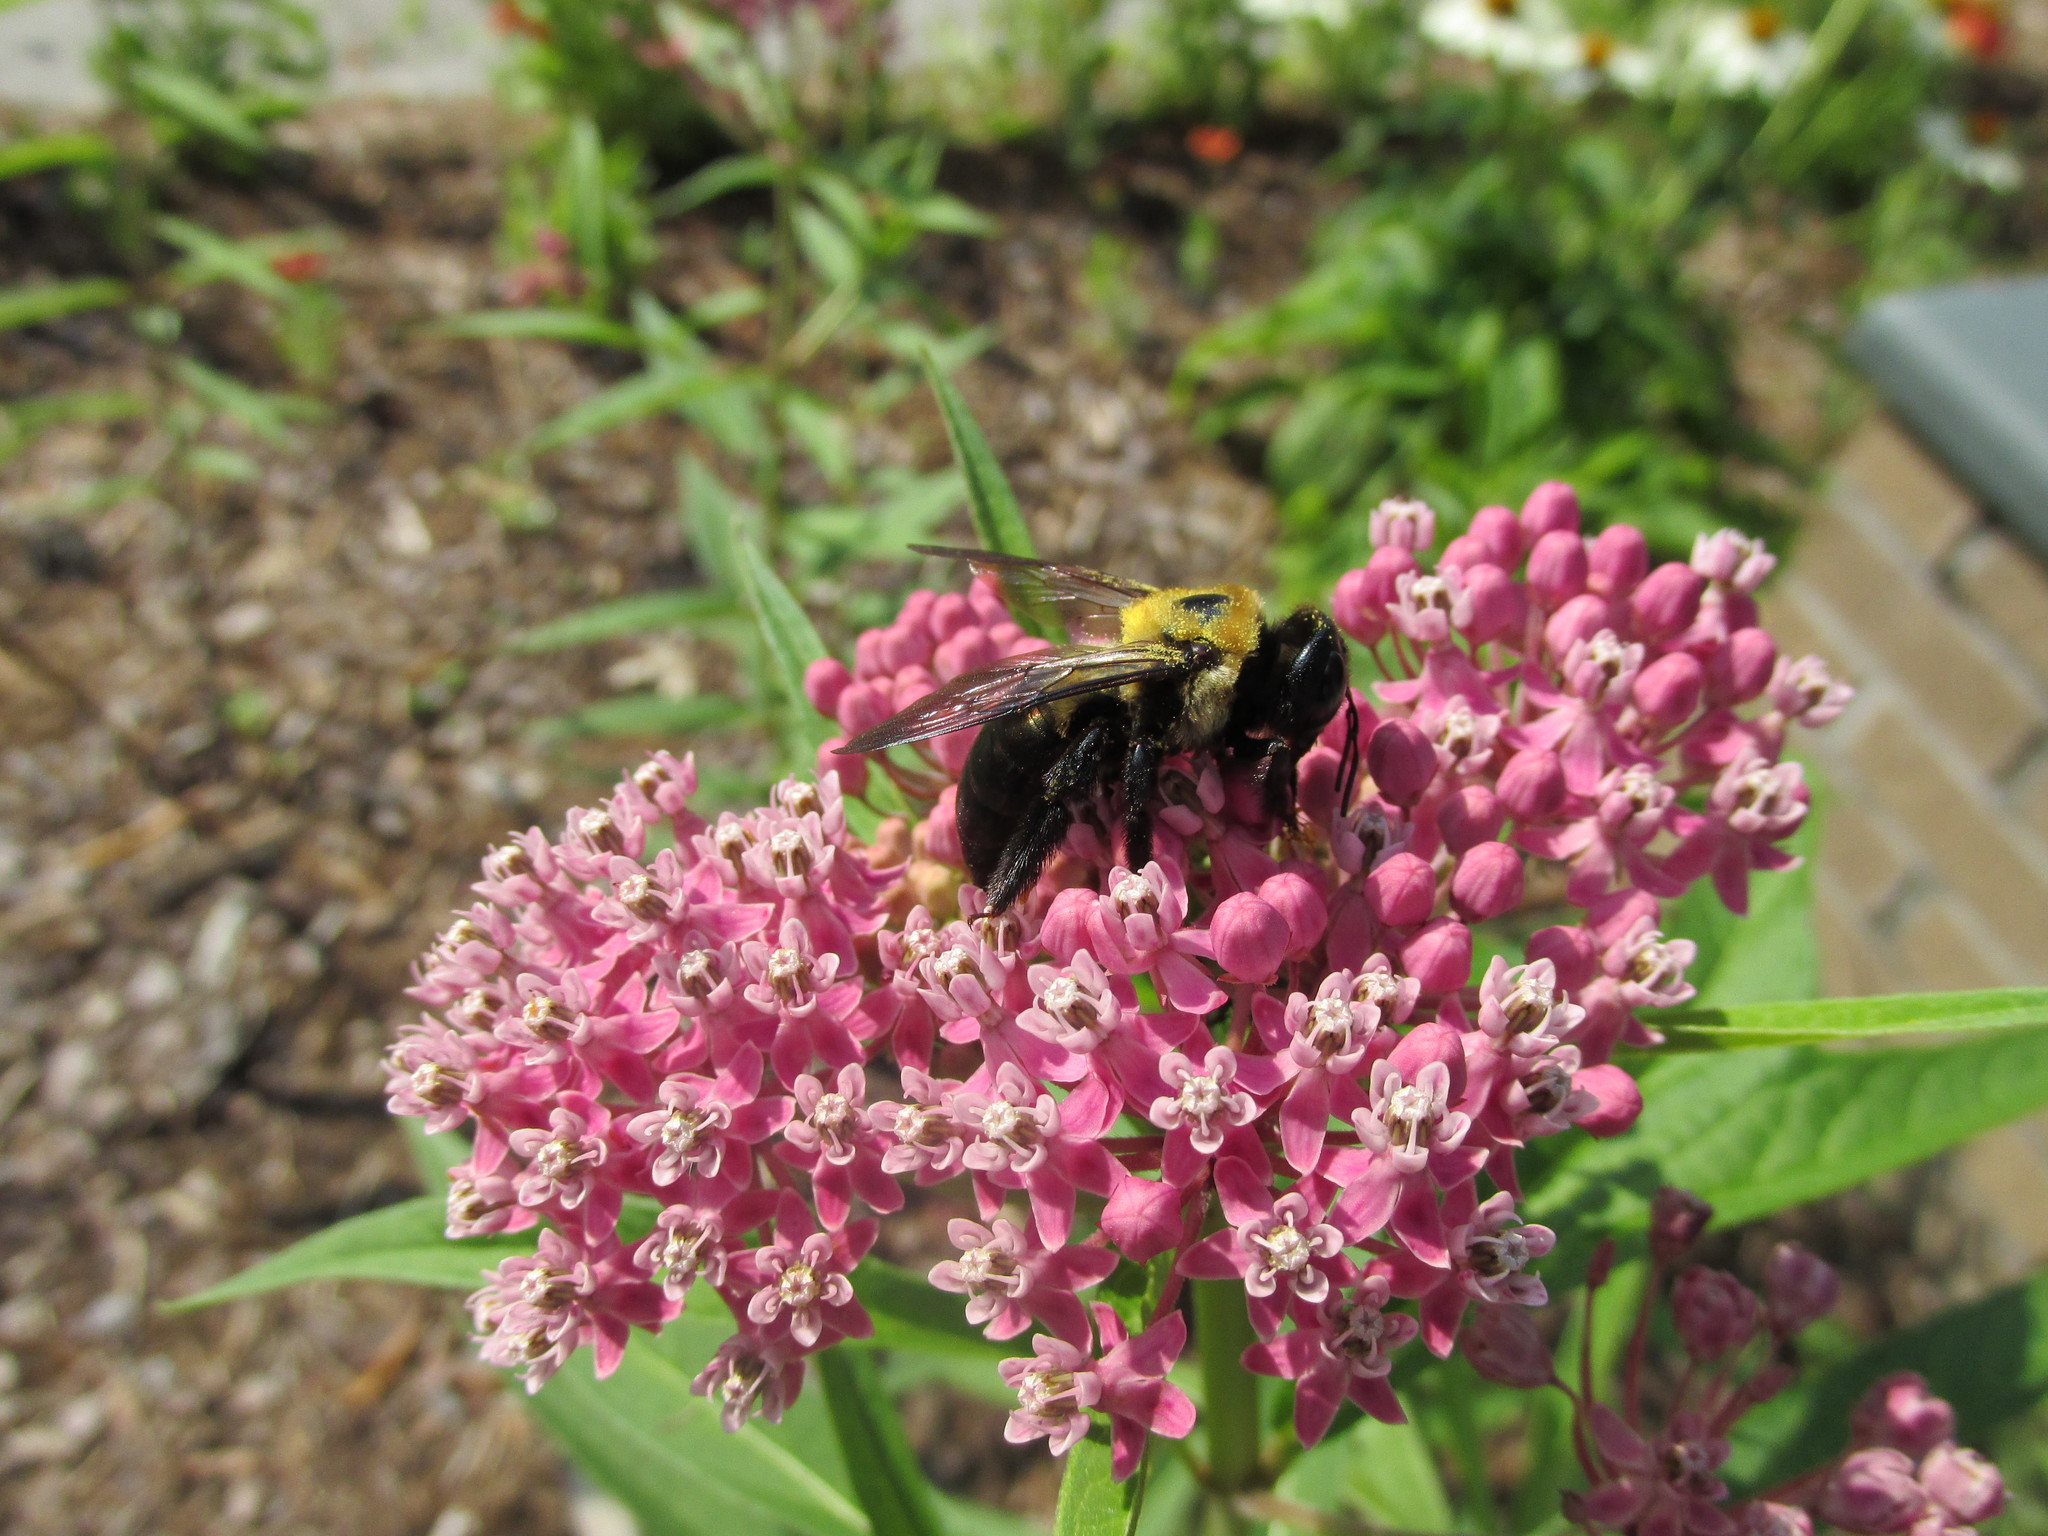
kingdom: Animalia
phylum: Arthropoda
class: Insecta
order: Hymenoptera
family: Apidae
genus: Xylocopa
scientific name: Xylocopa virginica
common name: Carpenter bee
